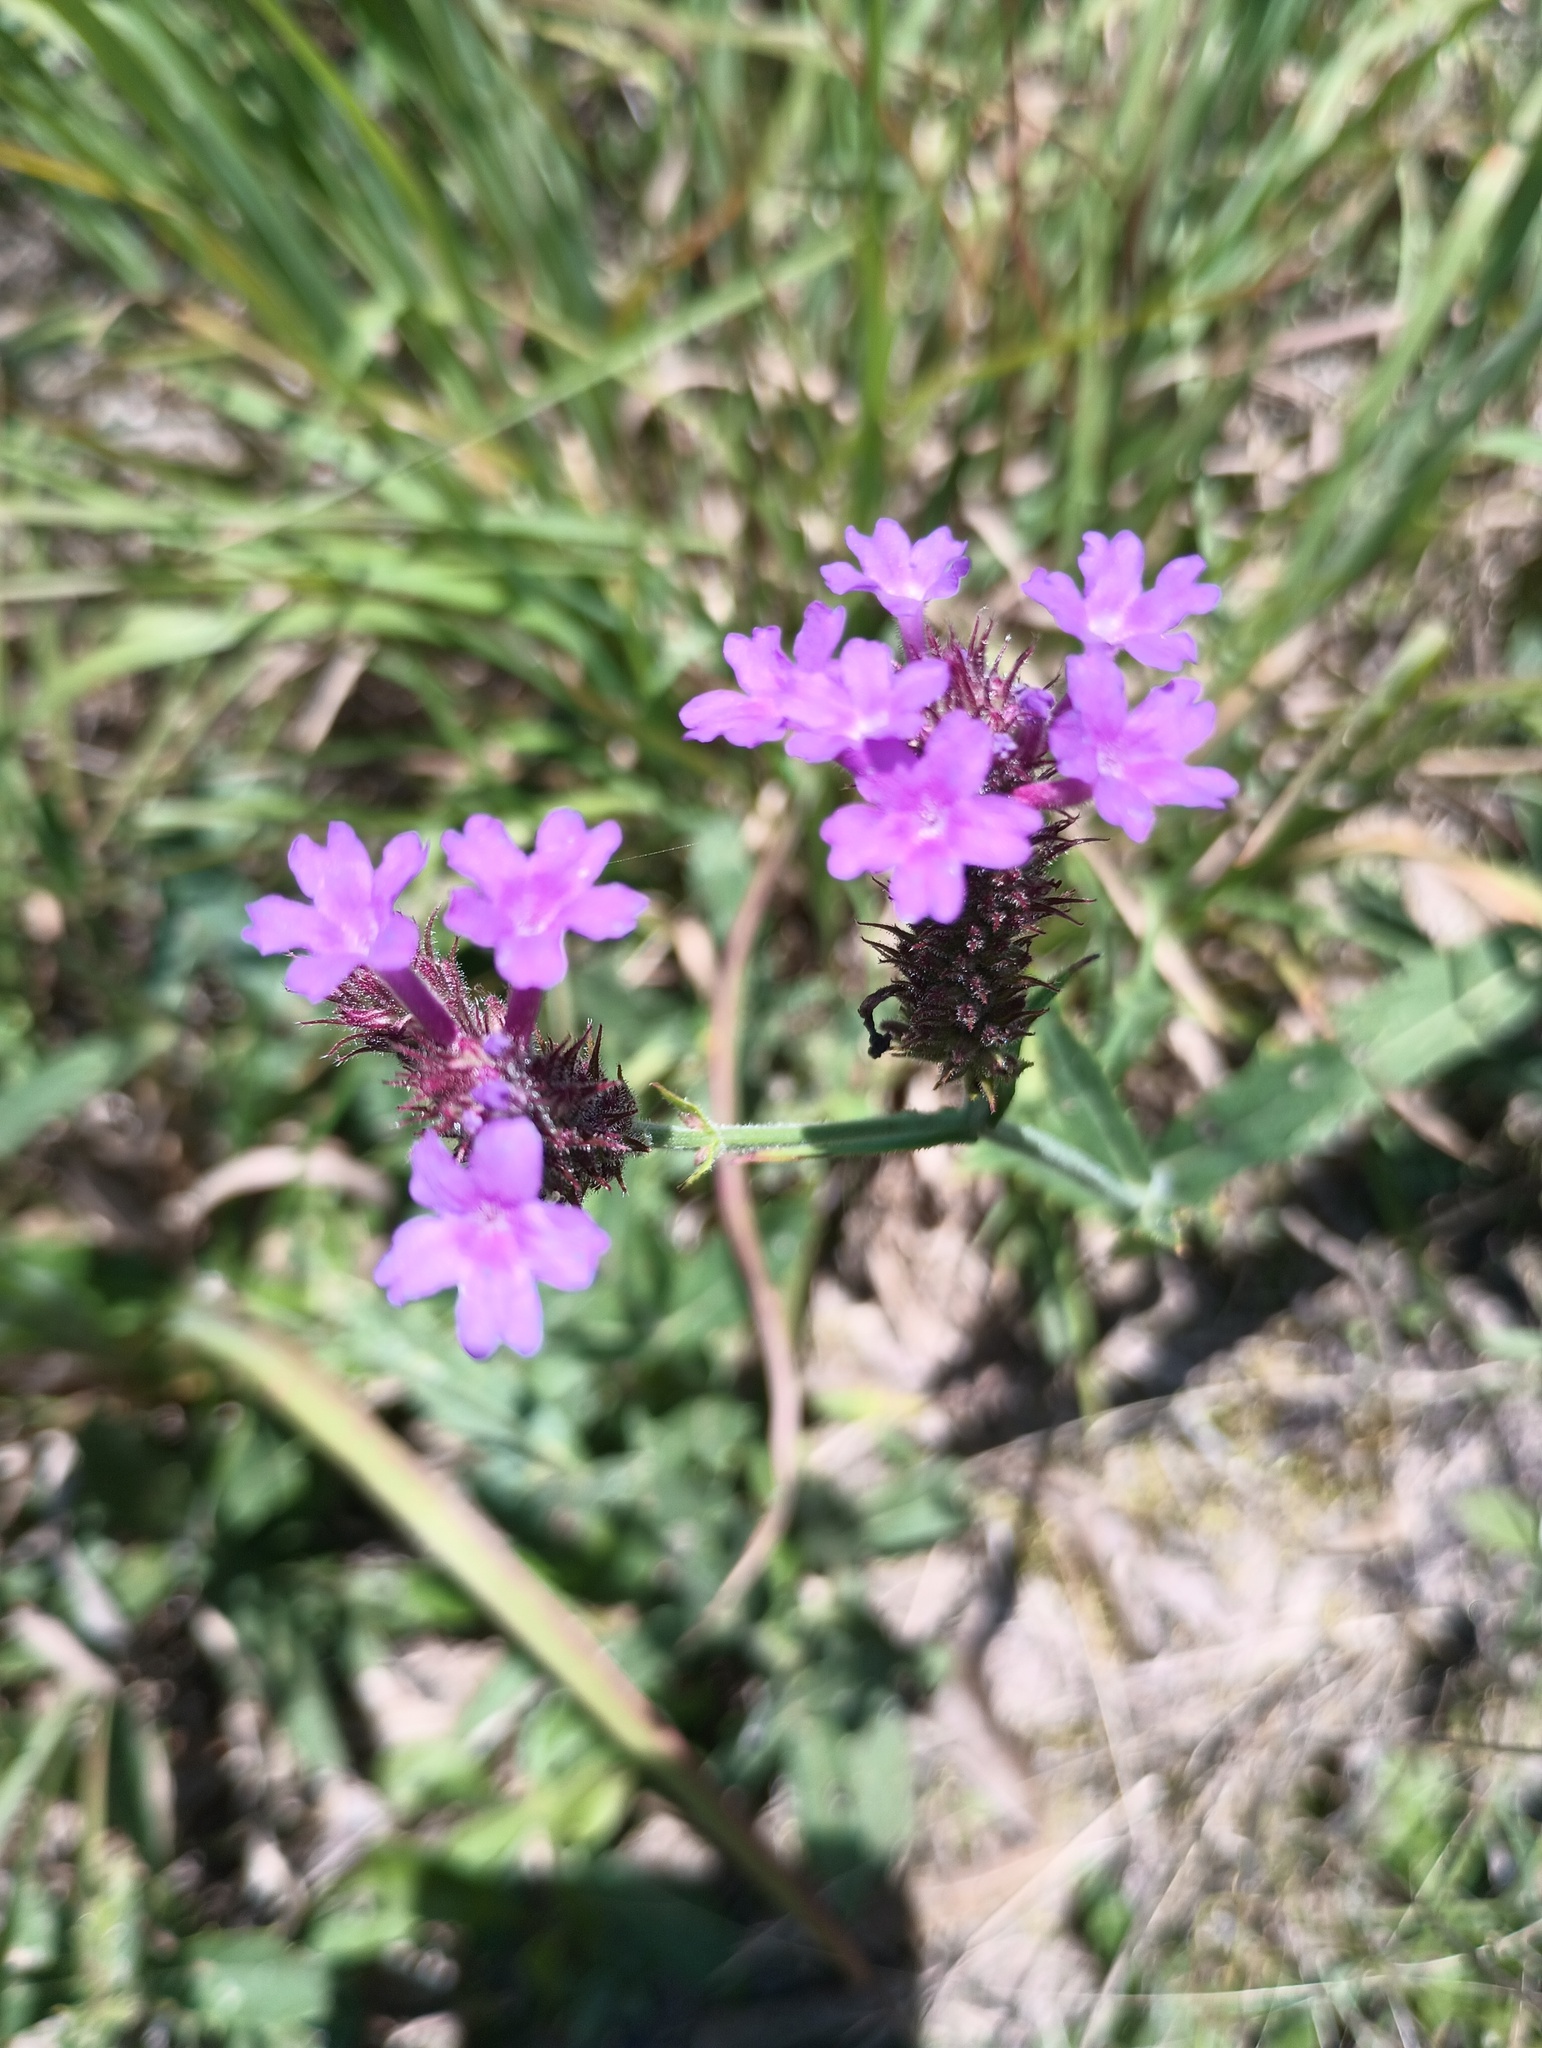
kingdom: Plantae
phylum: Tracheophyta
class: Magnoliopsida
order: Lamiales
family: Verbenaceae
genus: Verbena
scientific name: Verbena rigida
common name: Slender vervain
